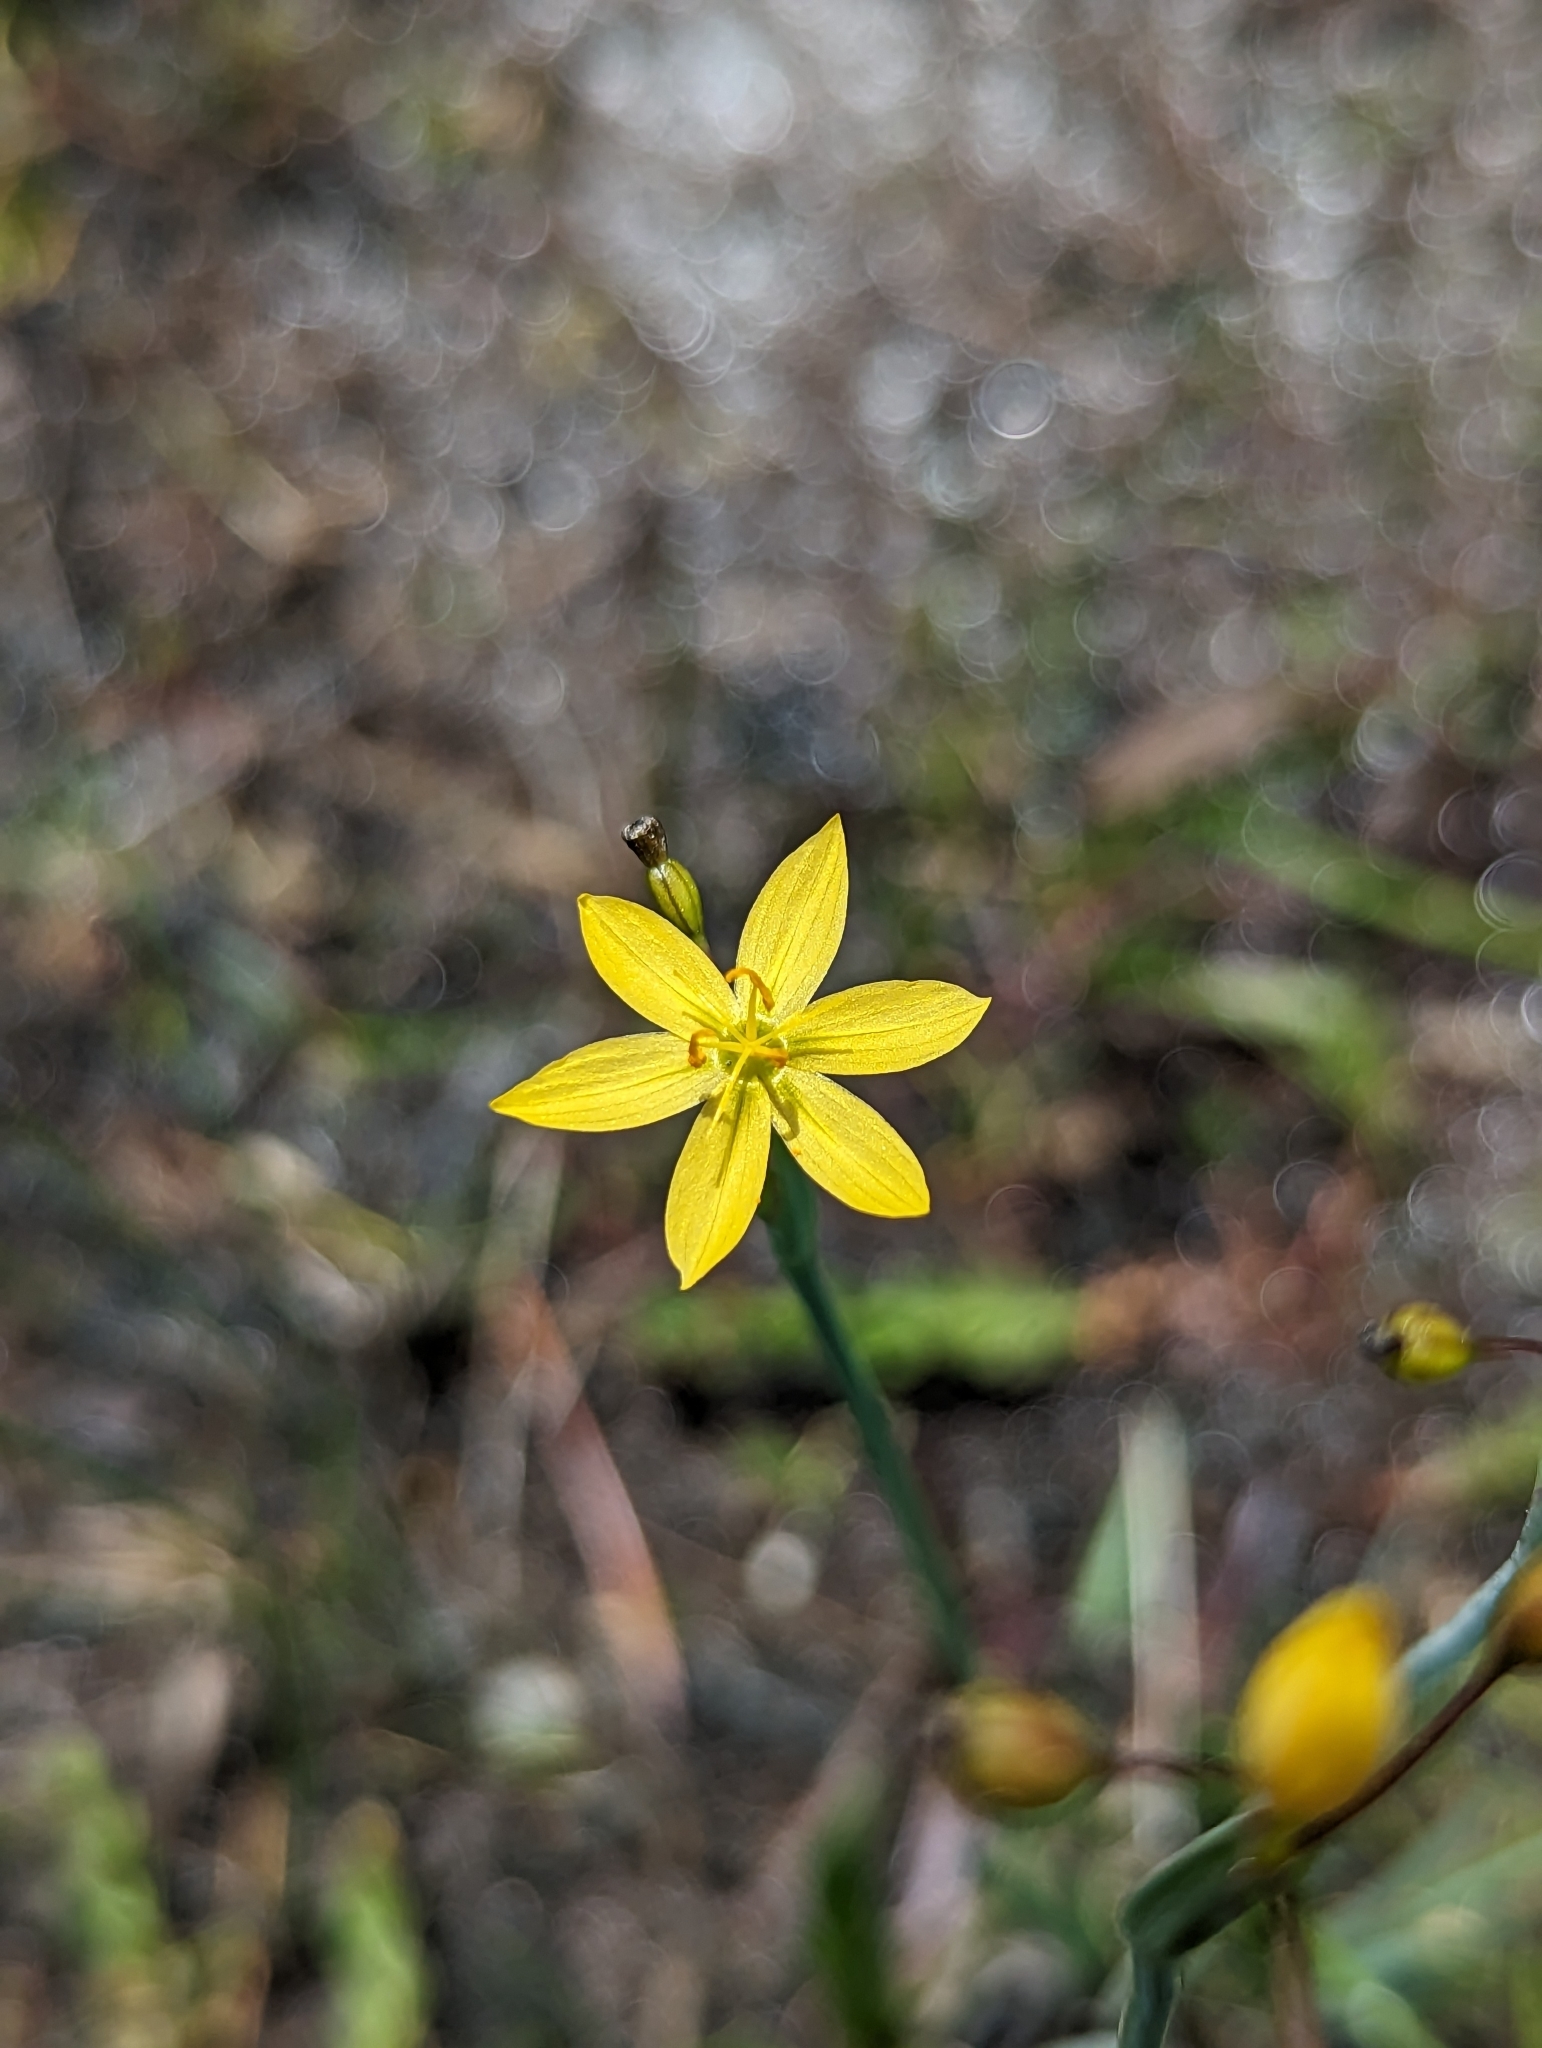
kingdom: Plantae
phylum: Tracheophyta
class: Liliopsida
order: Asparagales
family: Iridaceae
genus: Sisyrinchium
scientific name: Sisyrinchium elmeri
